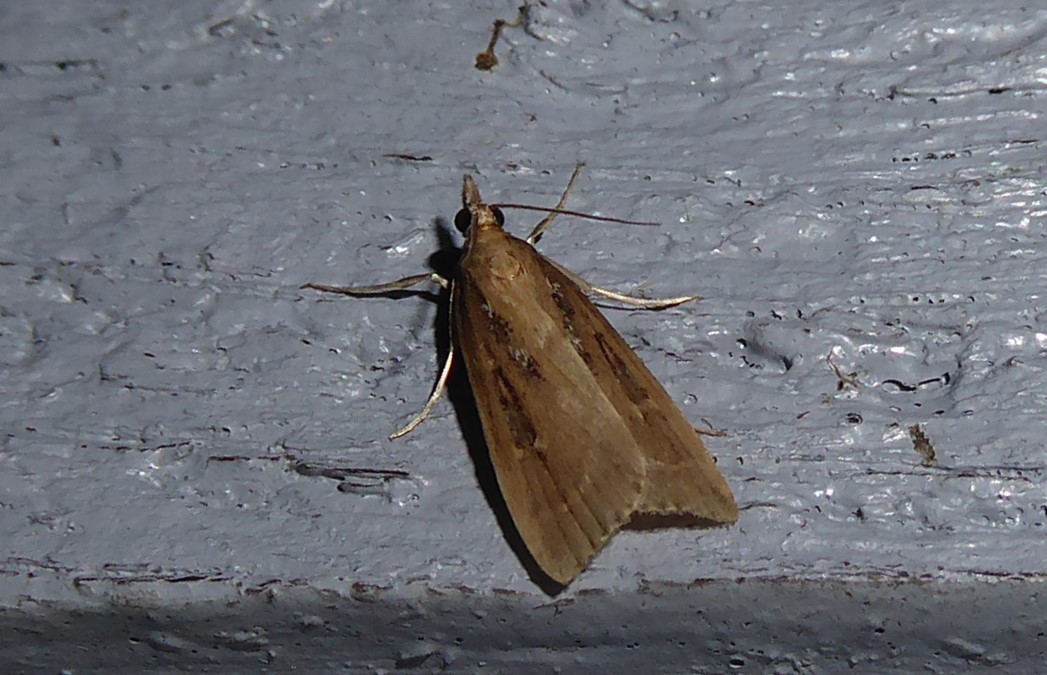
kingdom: Animalia
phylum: Arthropoda
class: Insecta
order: Lepidoptera
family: Crambidae
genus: Eudonia
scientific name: Eudonia octophora
